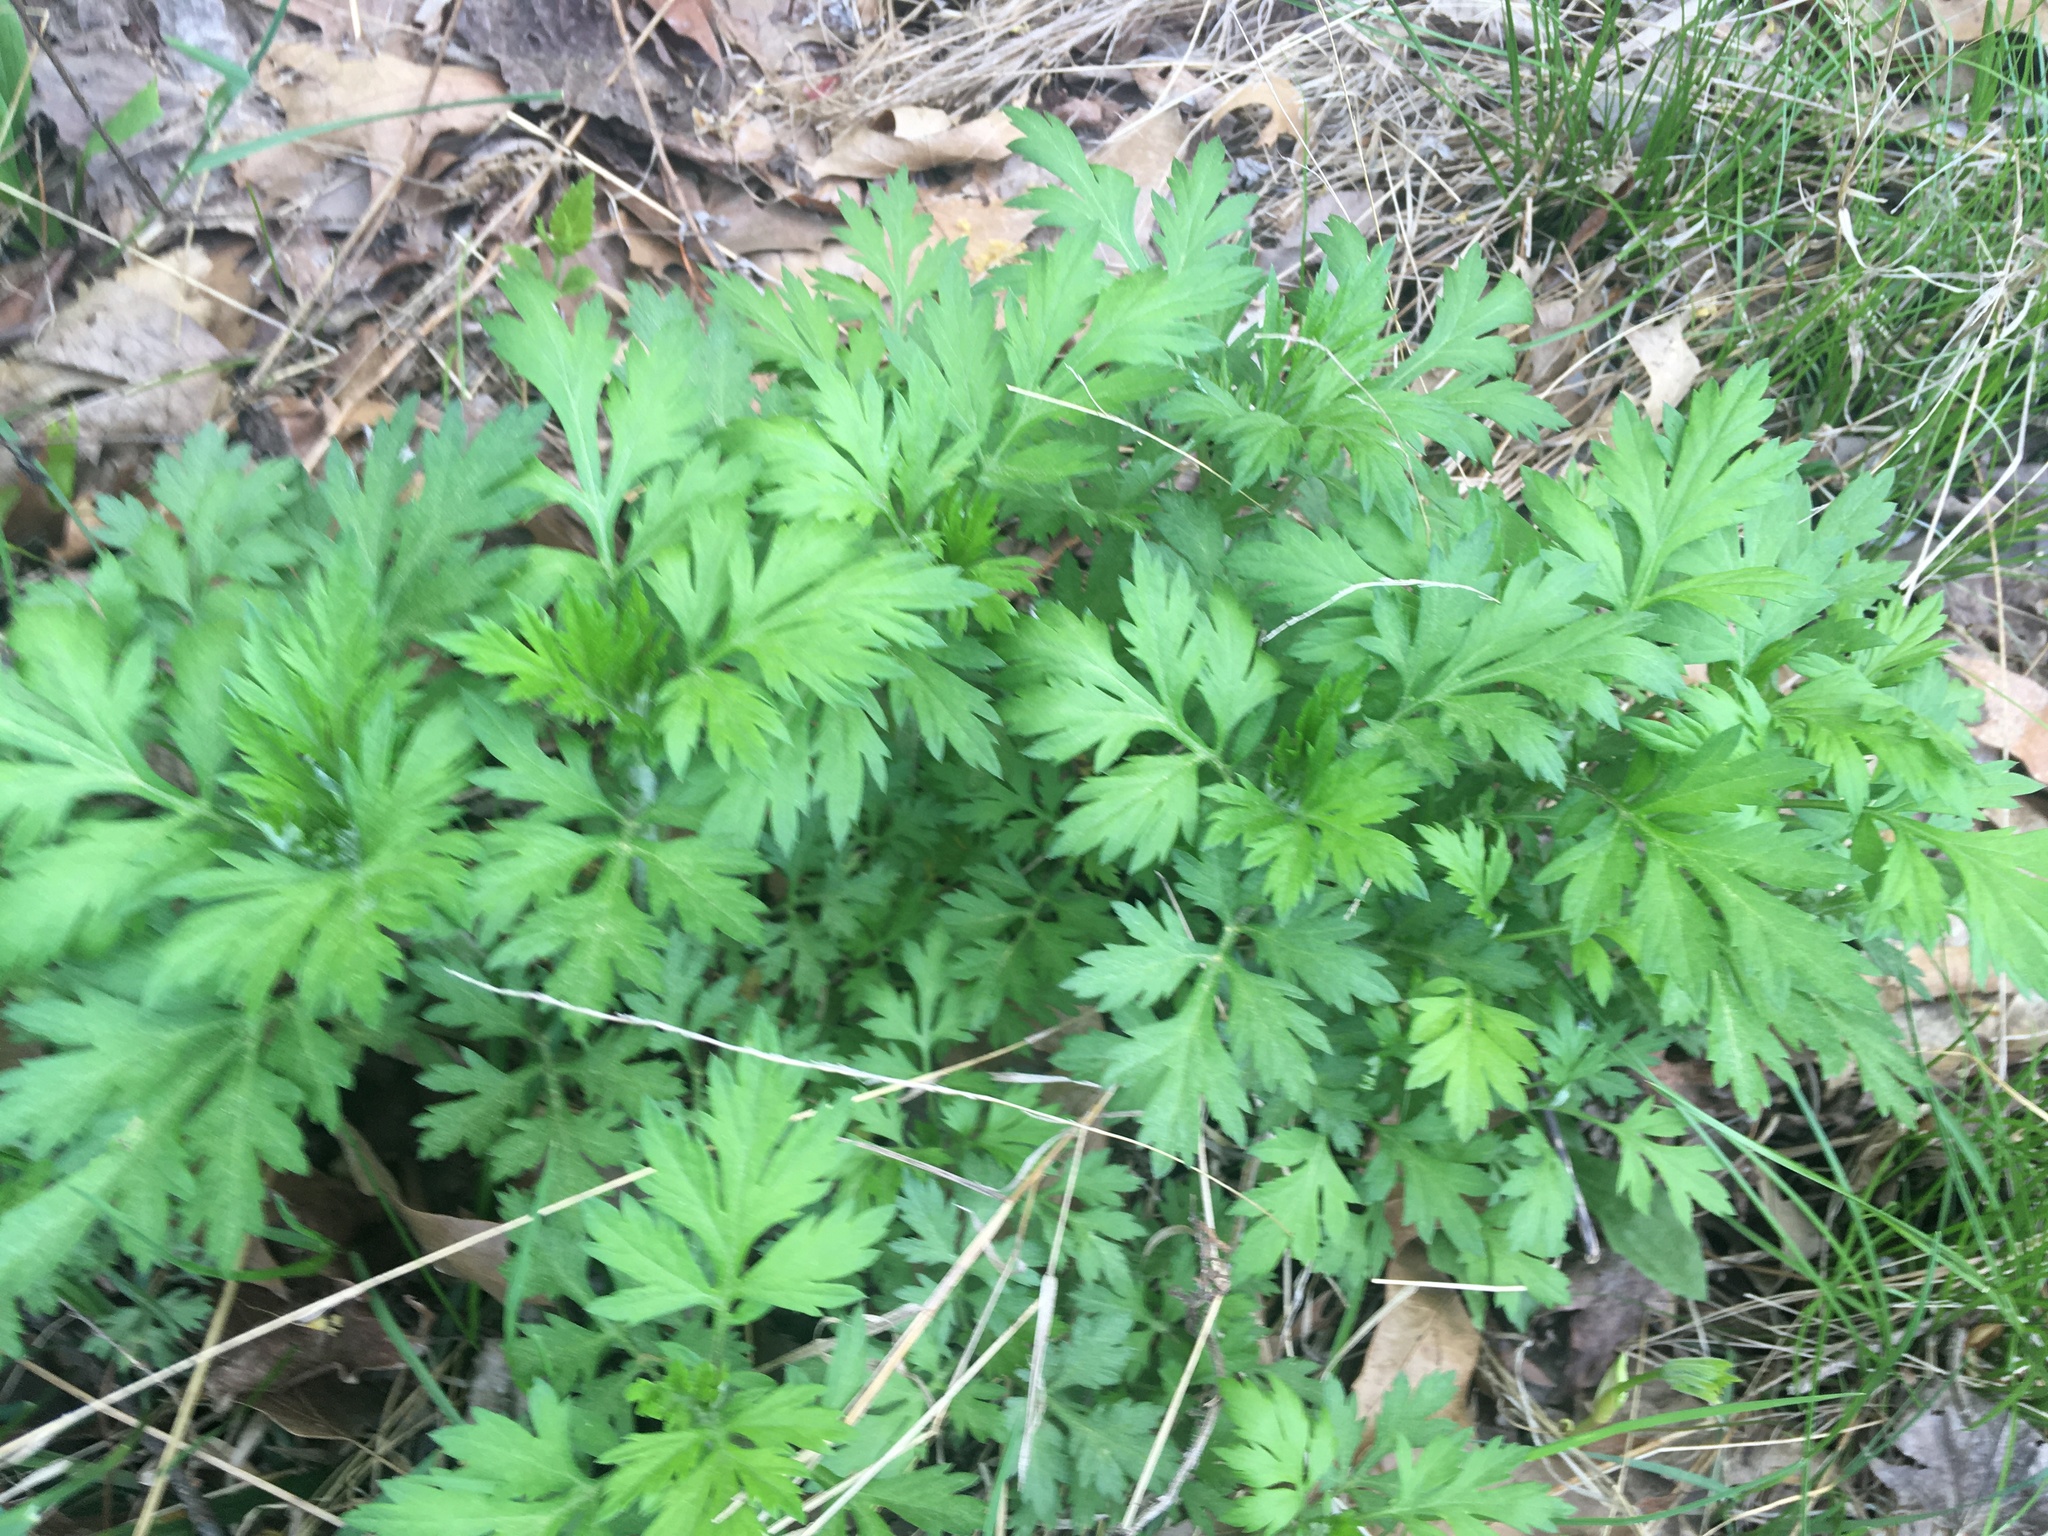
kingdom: Plantae
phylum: Tracheophyta
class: Magnoliopsida
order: Asterales
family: Asteraceae
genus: Artemisia
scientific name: Artemisia vulgaris
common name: Mugwort
